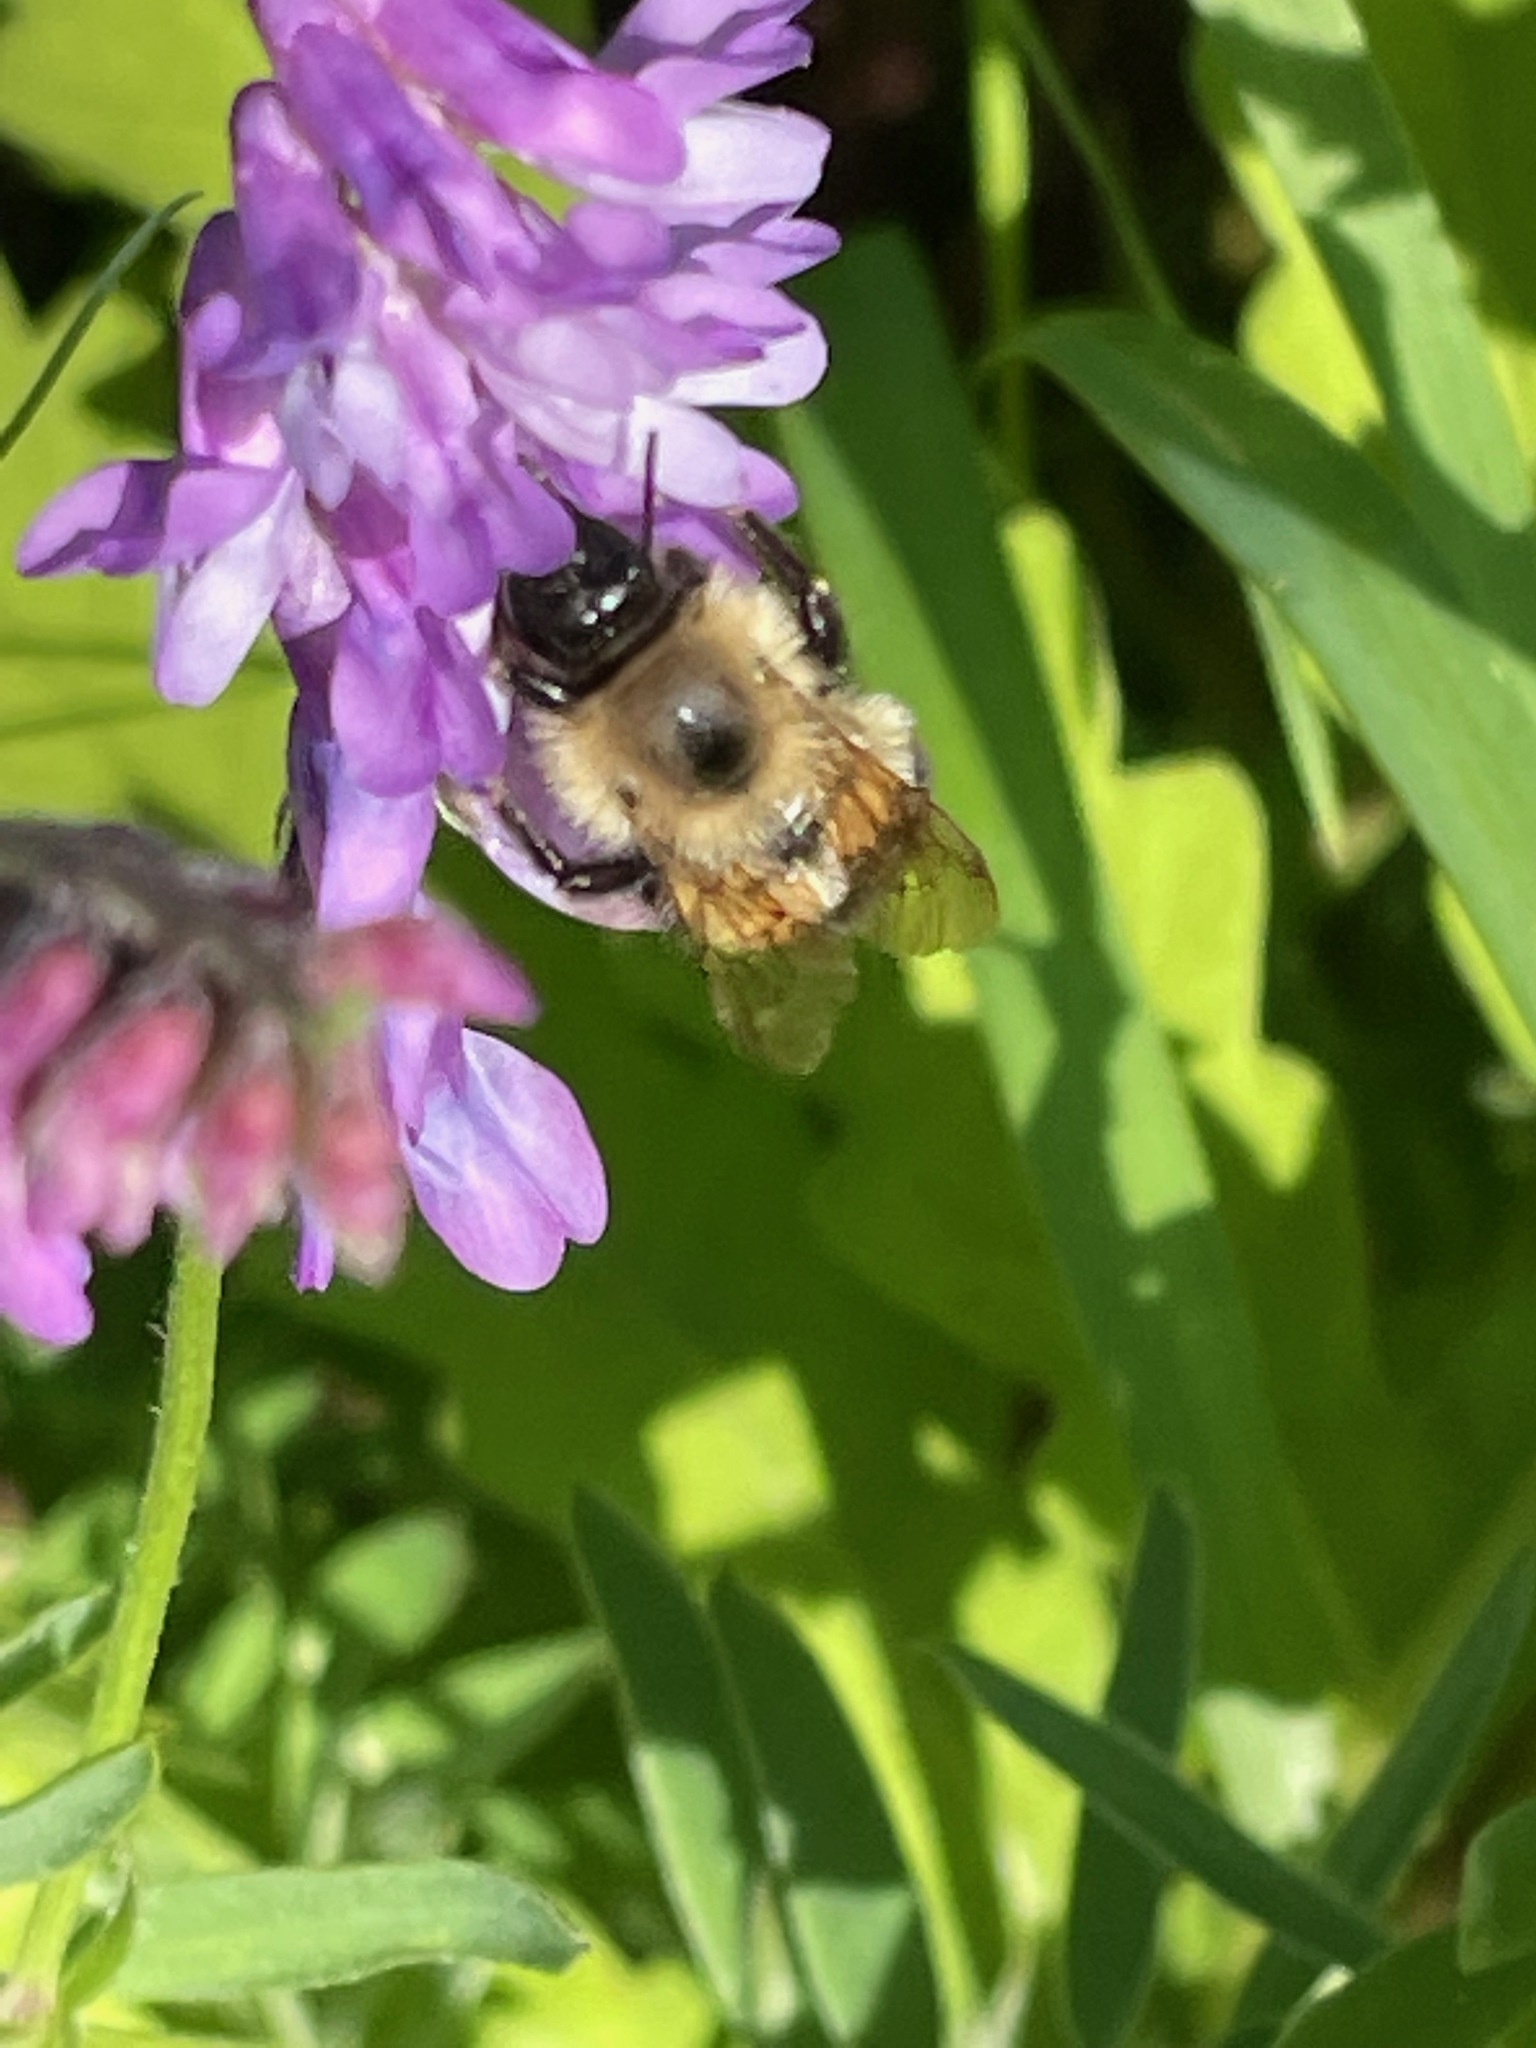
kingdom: Animalia
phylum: Arthropoda
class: Insecta
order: Hymenoptera
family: Apidae
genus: Bombus
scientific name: Bombus vagans
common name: Half-black bumble bee
